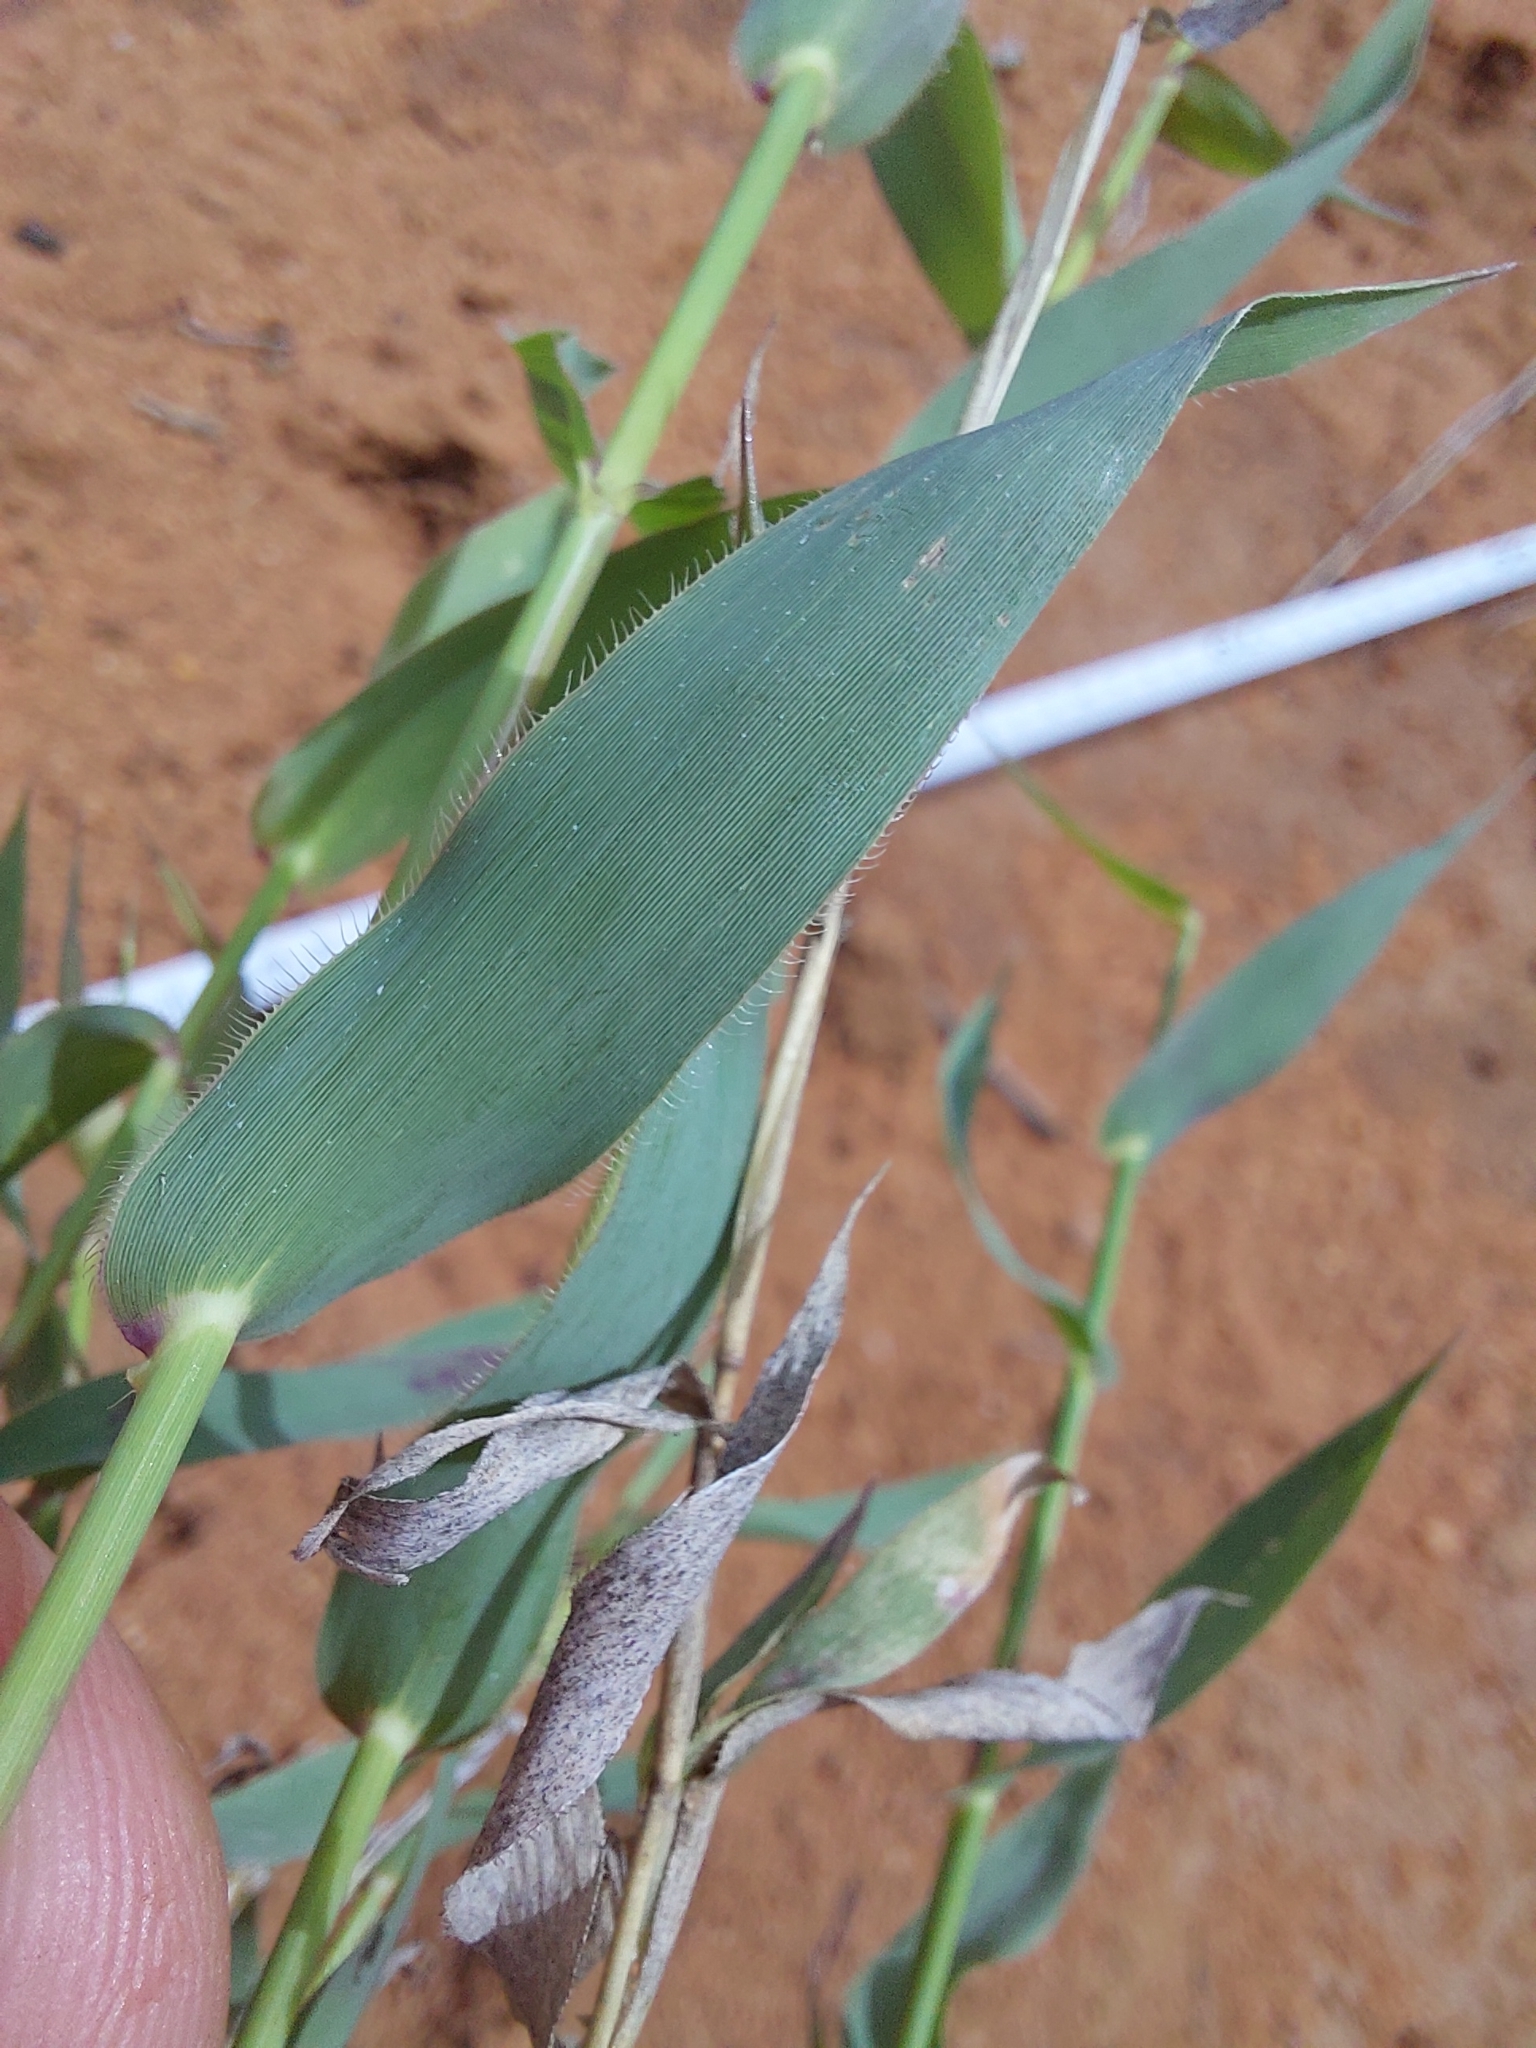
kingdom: Plantae
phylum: Tracheophyta
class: Liliopsida
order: Poales
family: Poaceae
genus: Perotis
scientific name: Perotis patens
